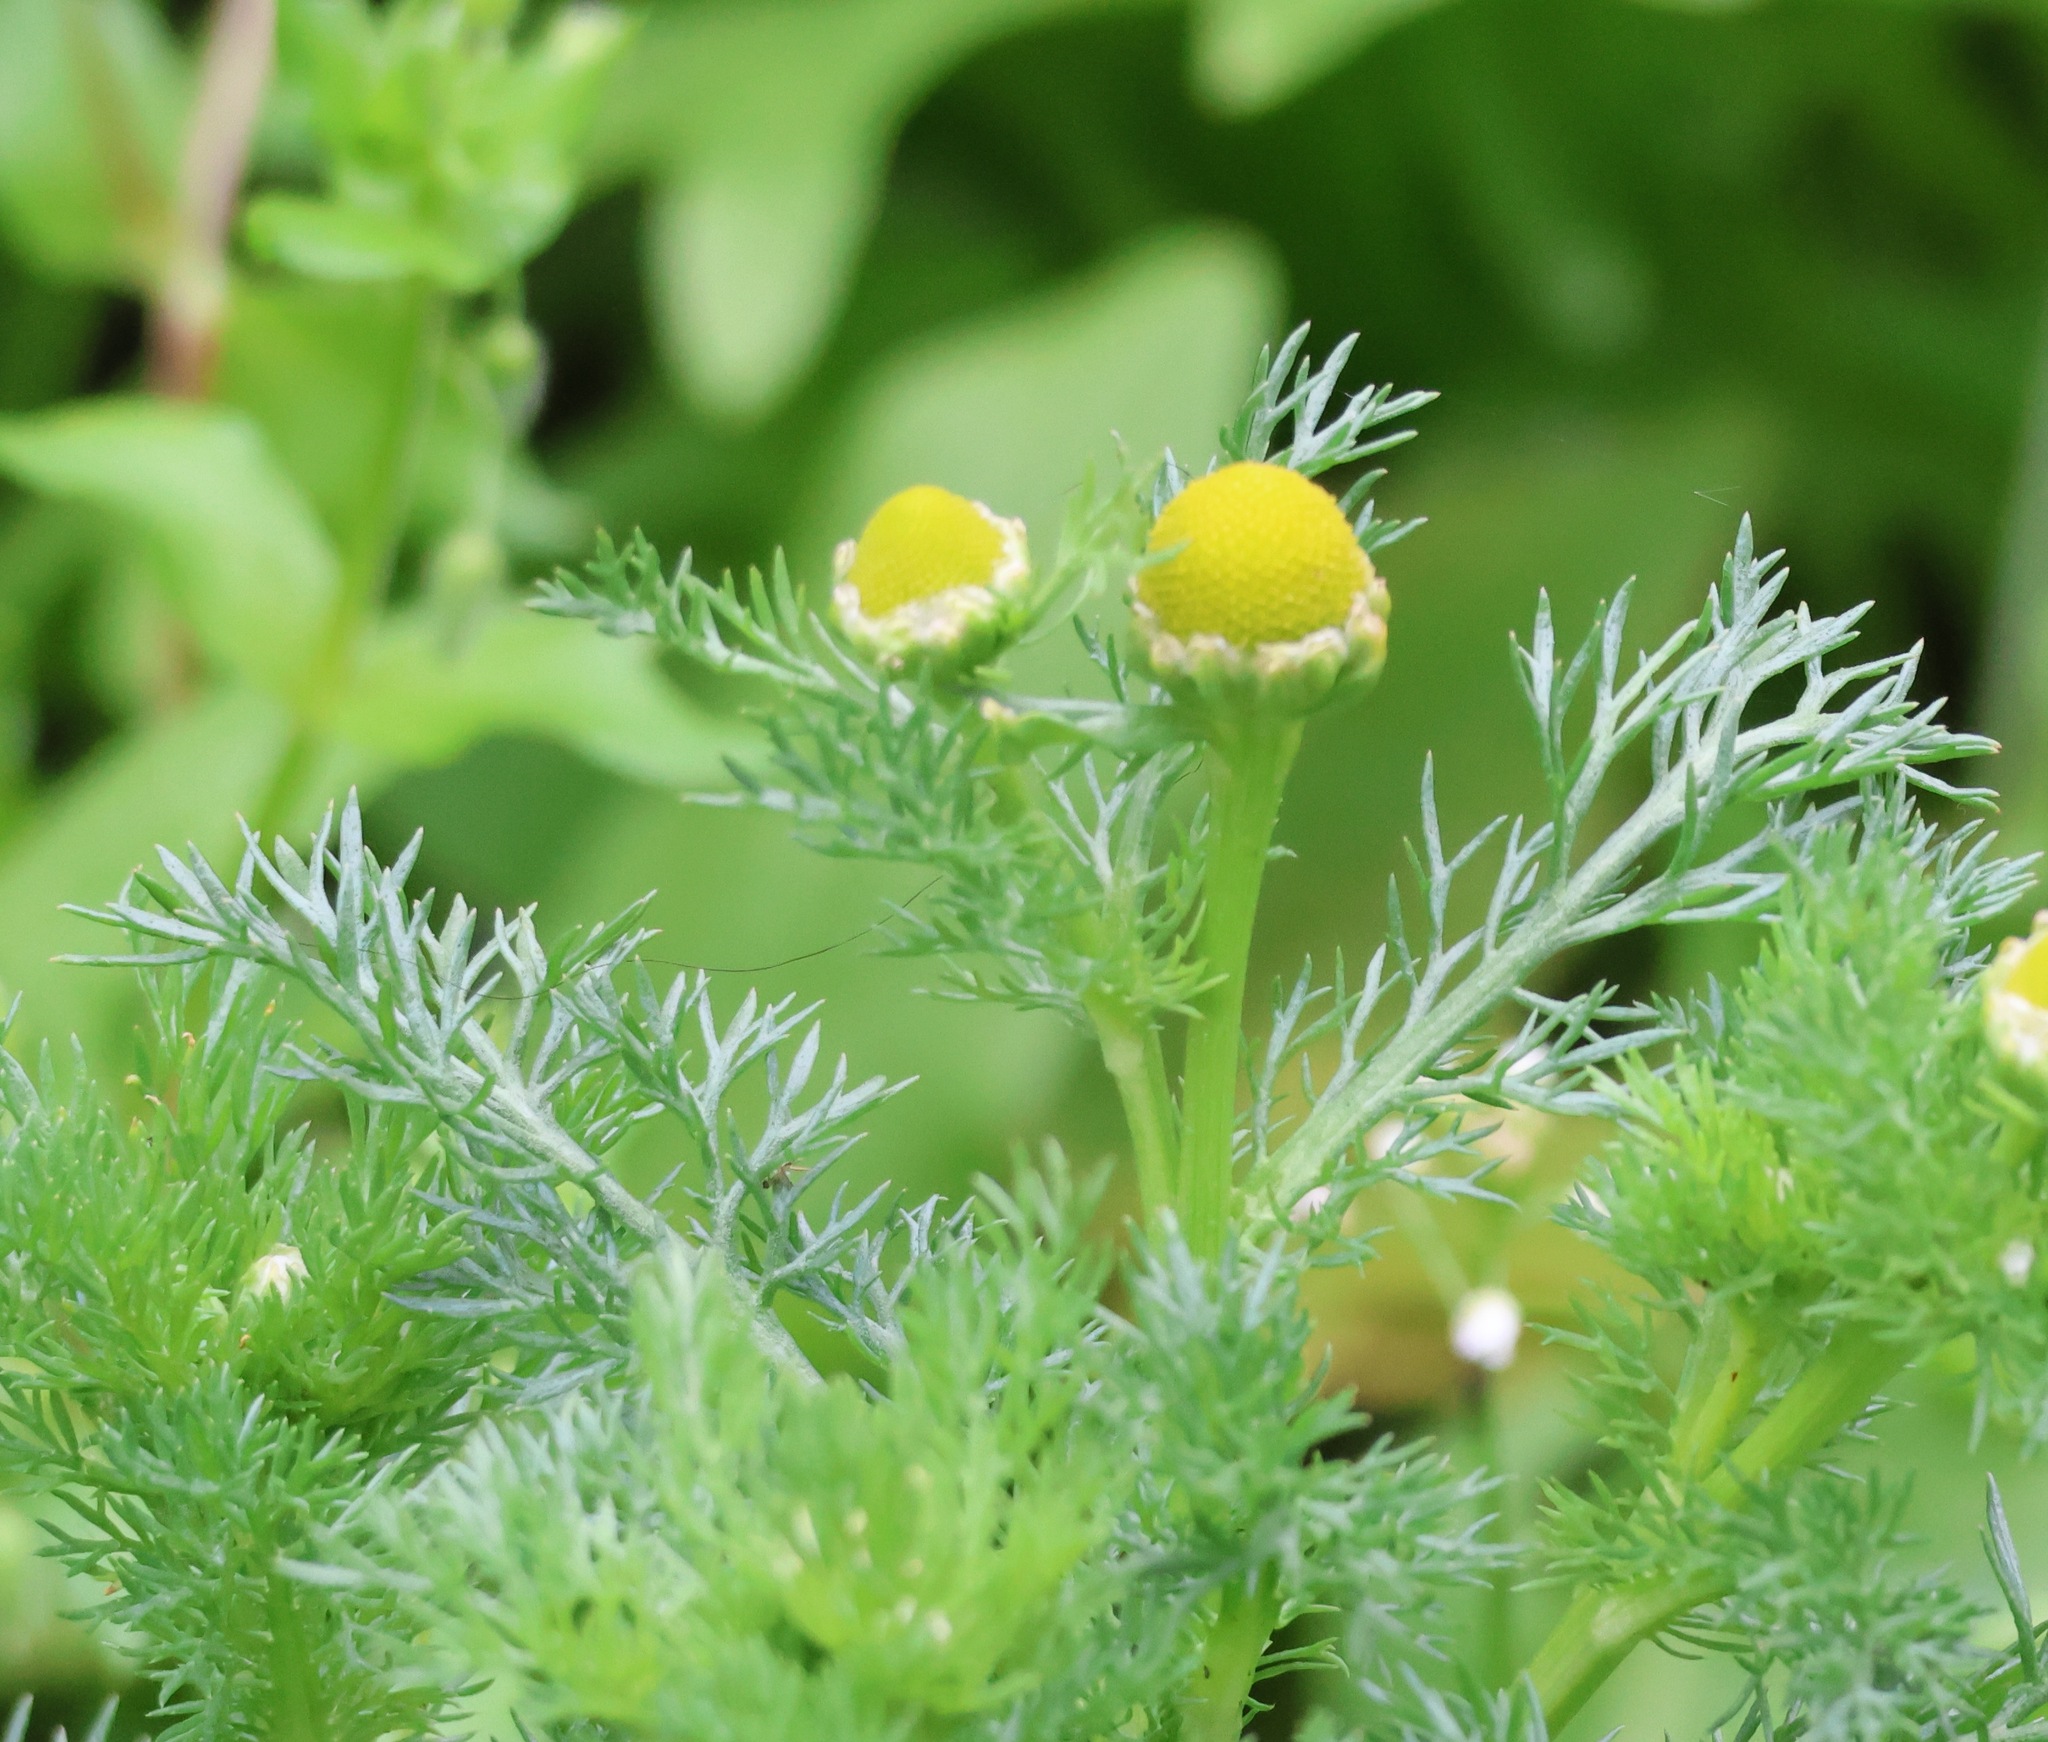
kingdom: Plantae
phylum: Tracheophyta
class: Magnoliopsida
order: Asterales
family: Asteraceae
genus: Matricaria
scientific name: Matricaria discoidea
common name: Disc mayweed
